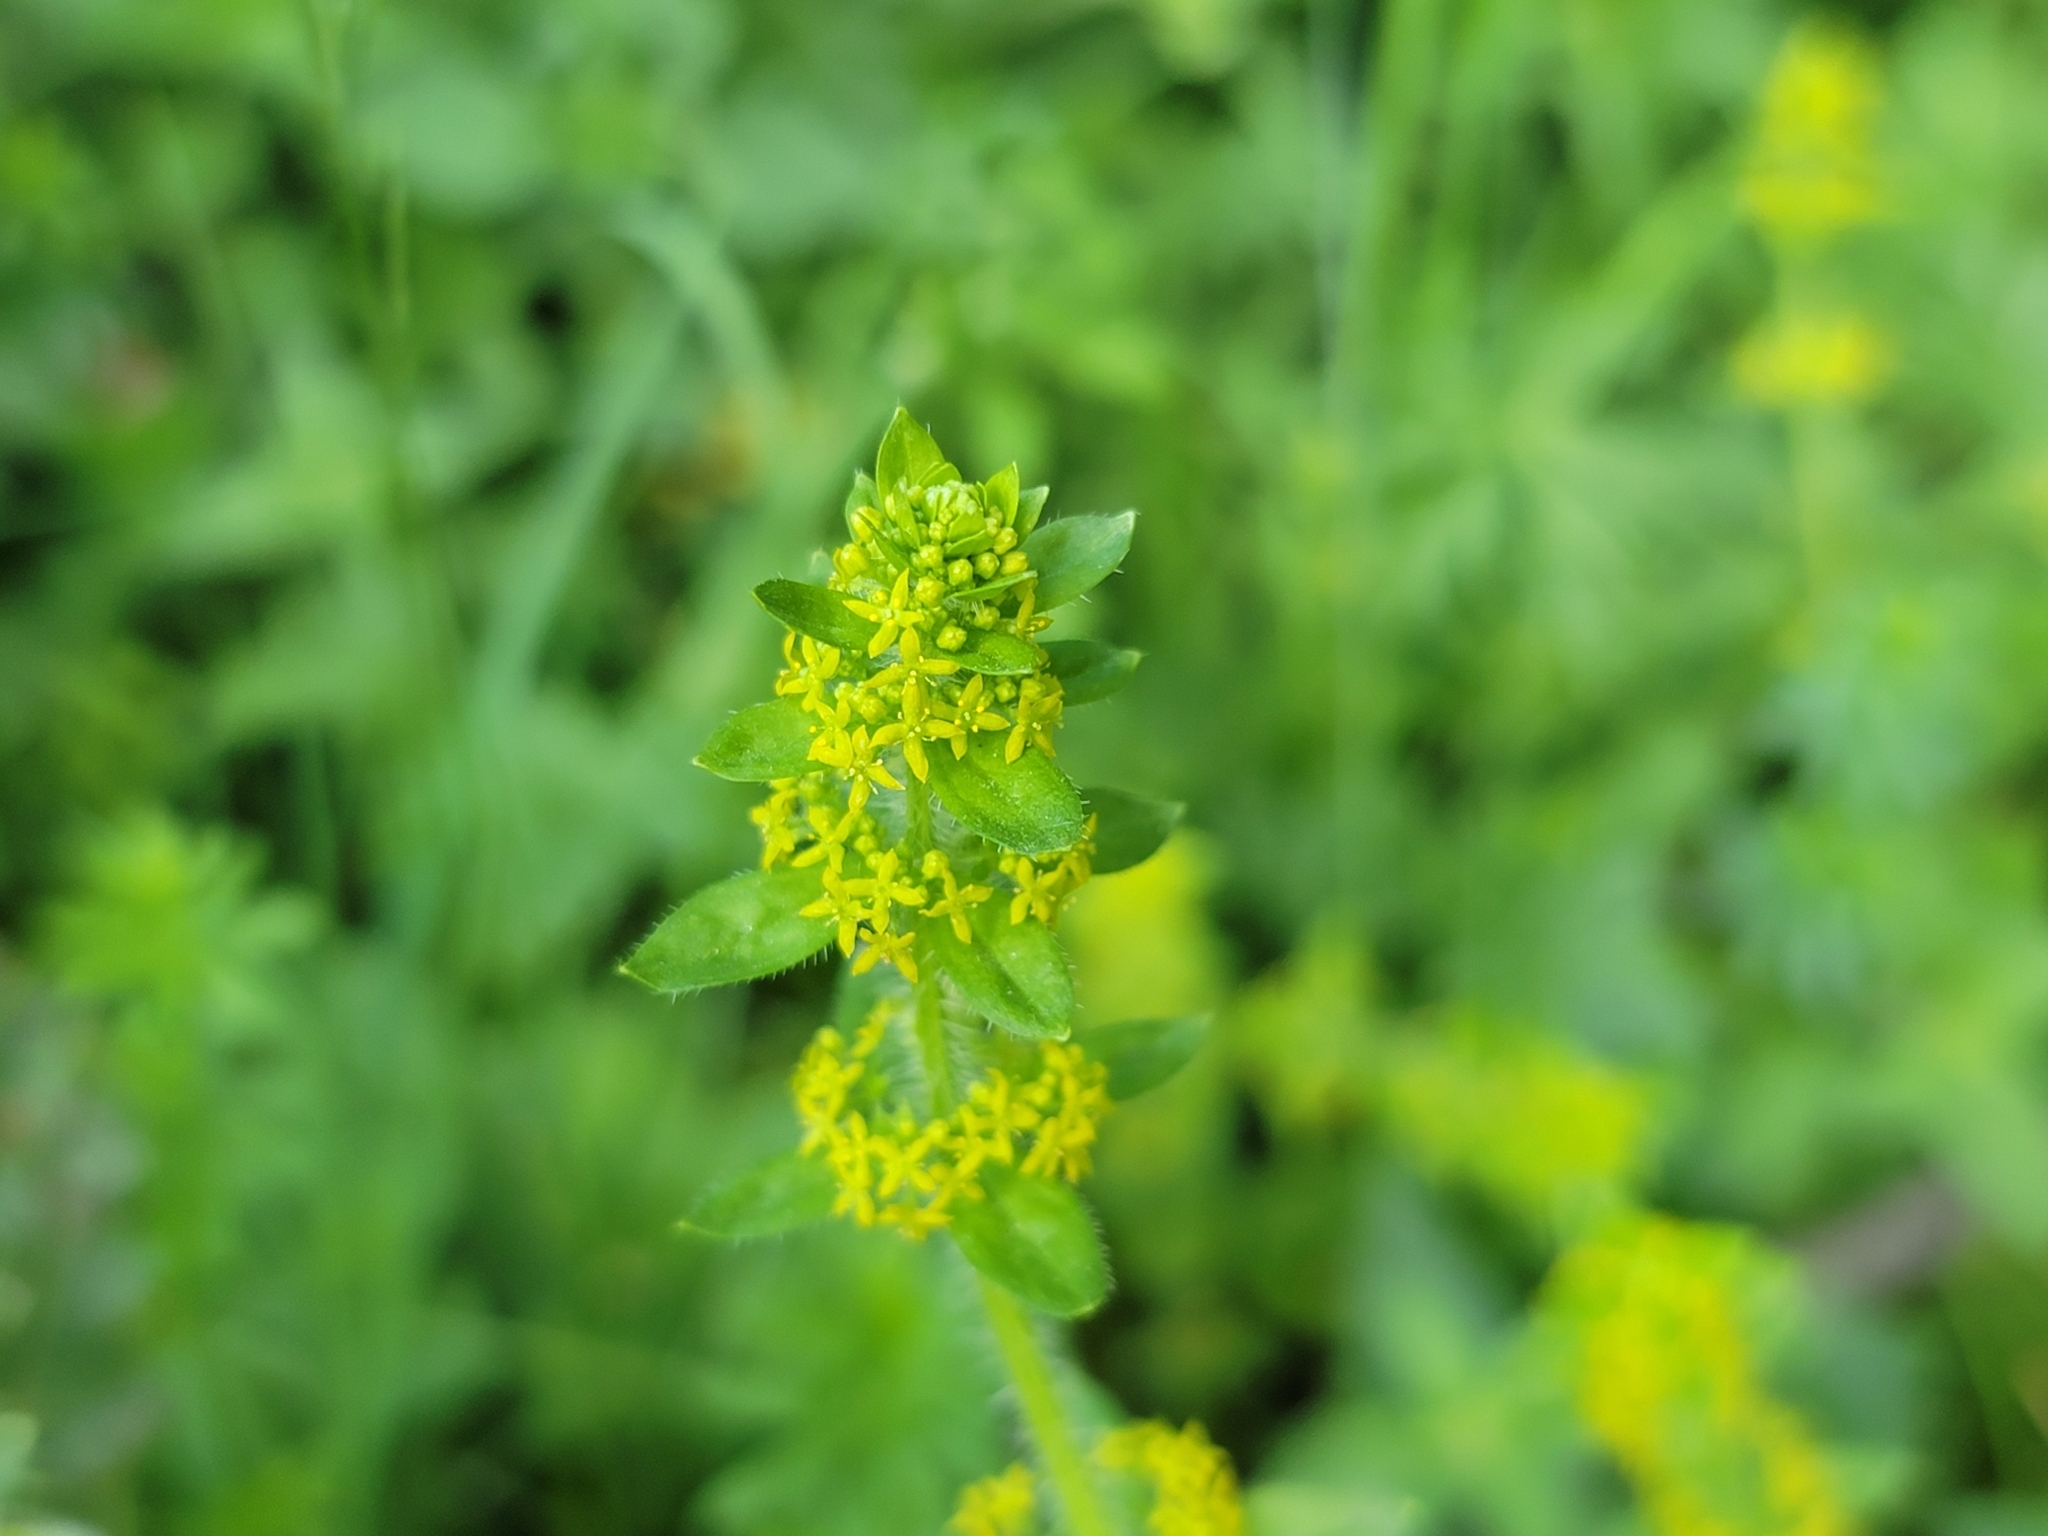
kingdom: Plantae
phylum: Tracheophyta
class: Magnoliopsida
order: Gentianales
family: Rubiaceae
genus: Cruciata
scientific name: Cruciata laevipes
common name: Crosswort
